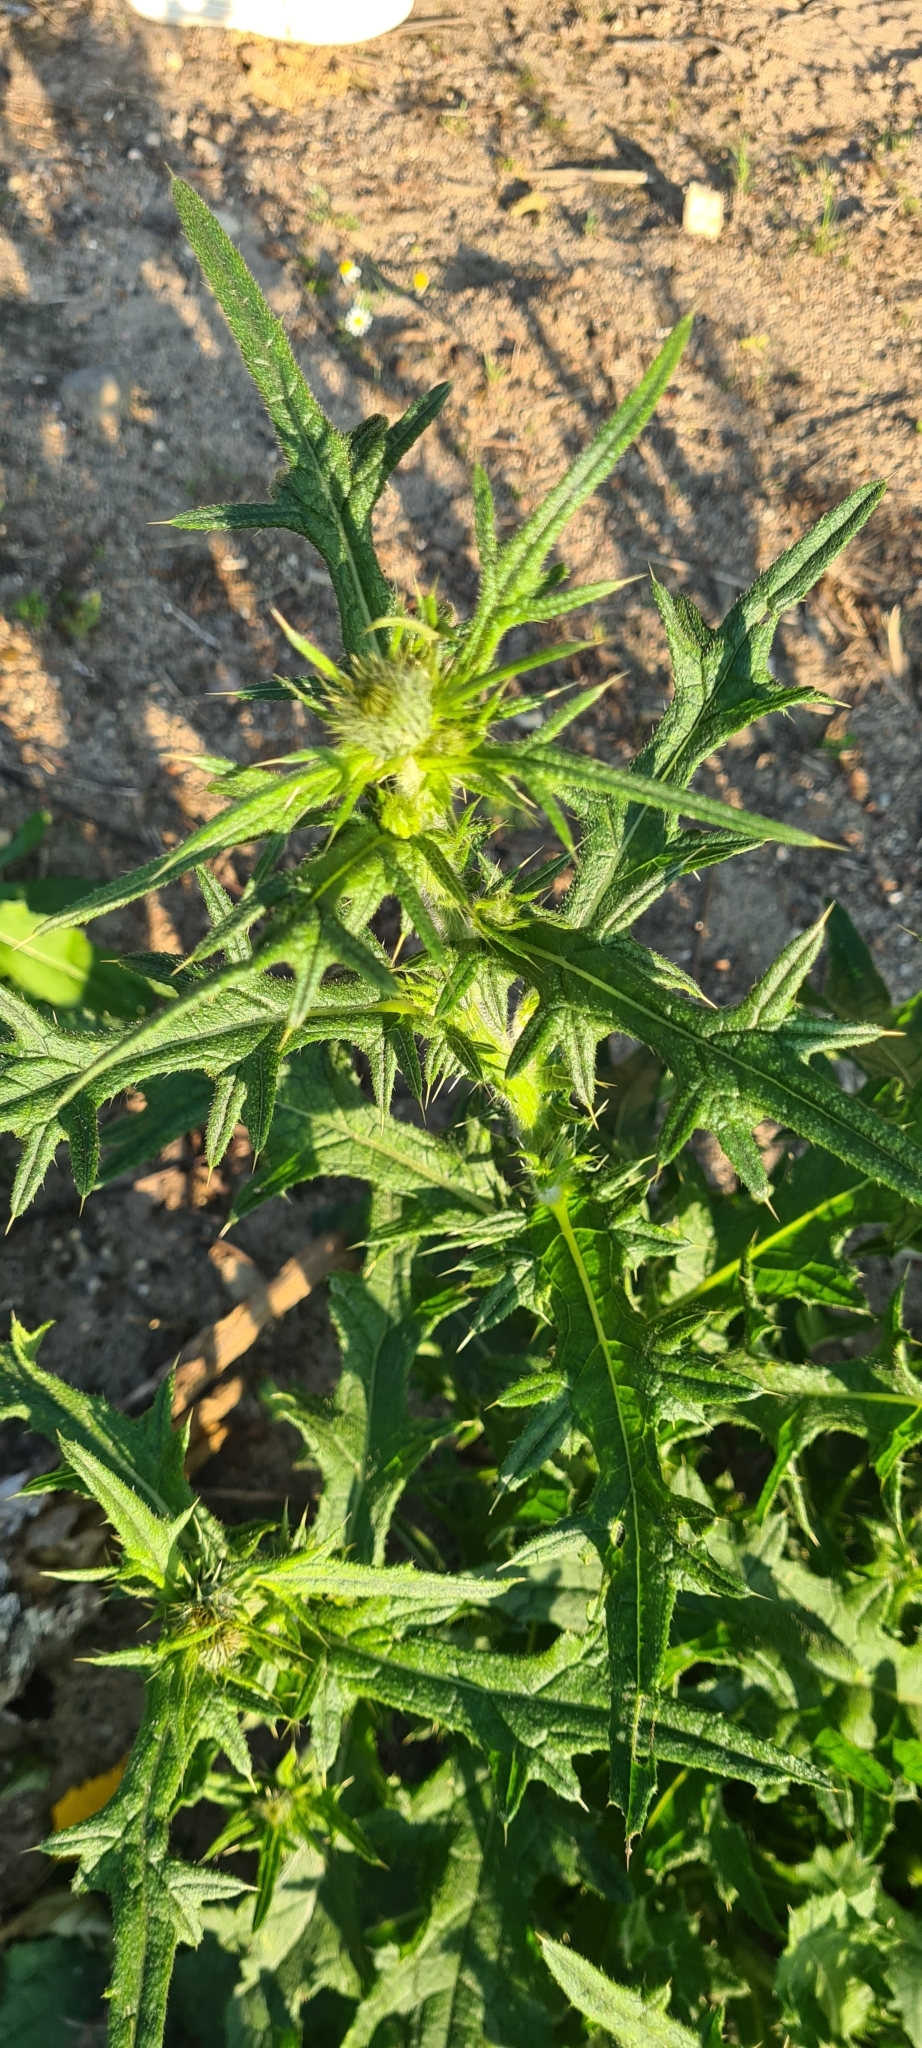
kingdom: Plantae
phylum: Tracheophyta
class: Magnoliopsida
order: Asterales
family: Asteraceae
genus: Cirsium
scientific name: Cirsium vulgare
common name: Bull thistle
